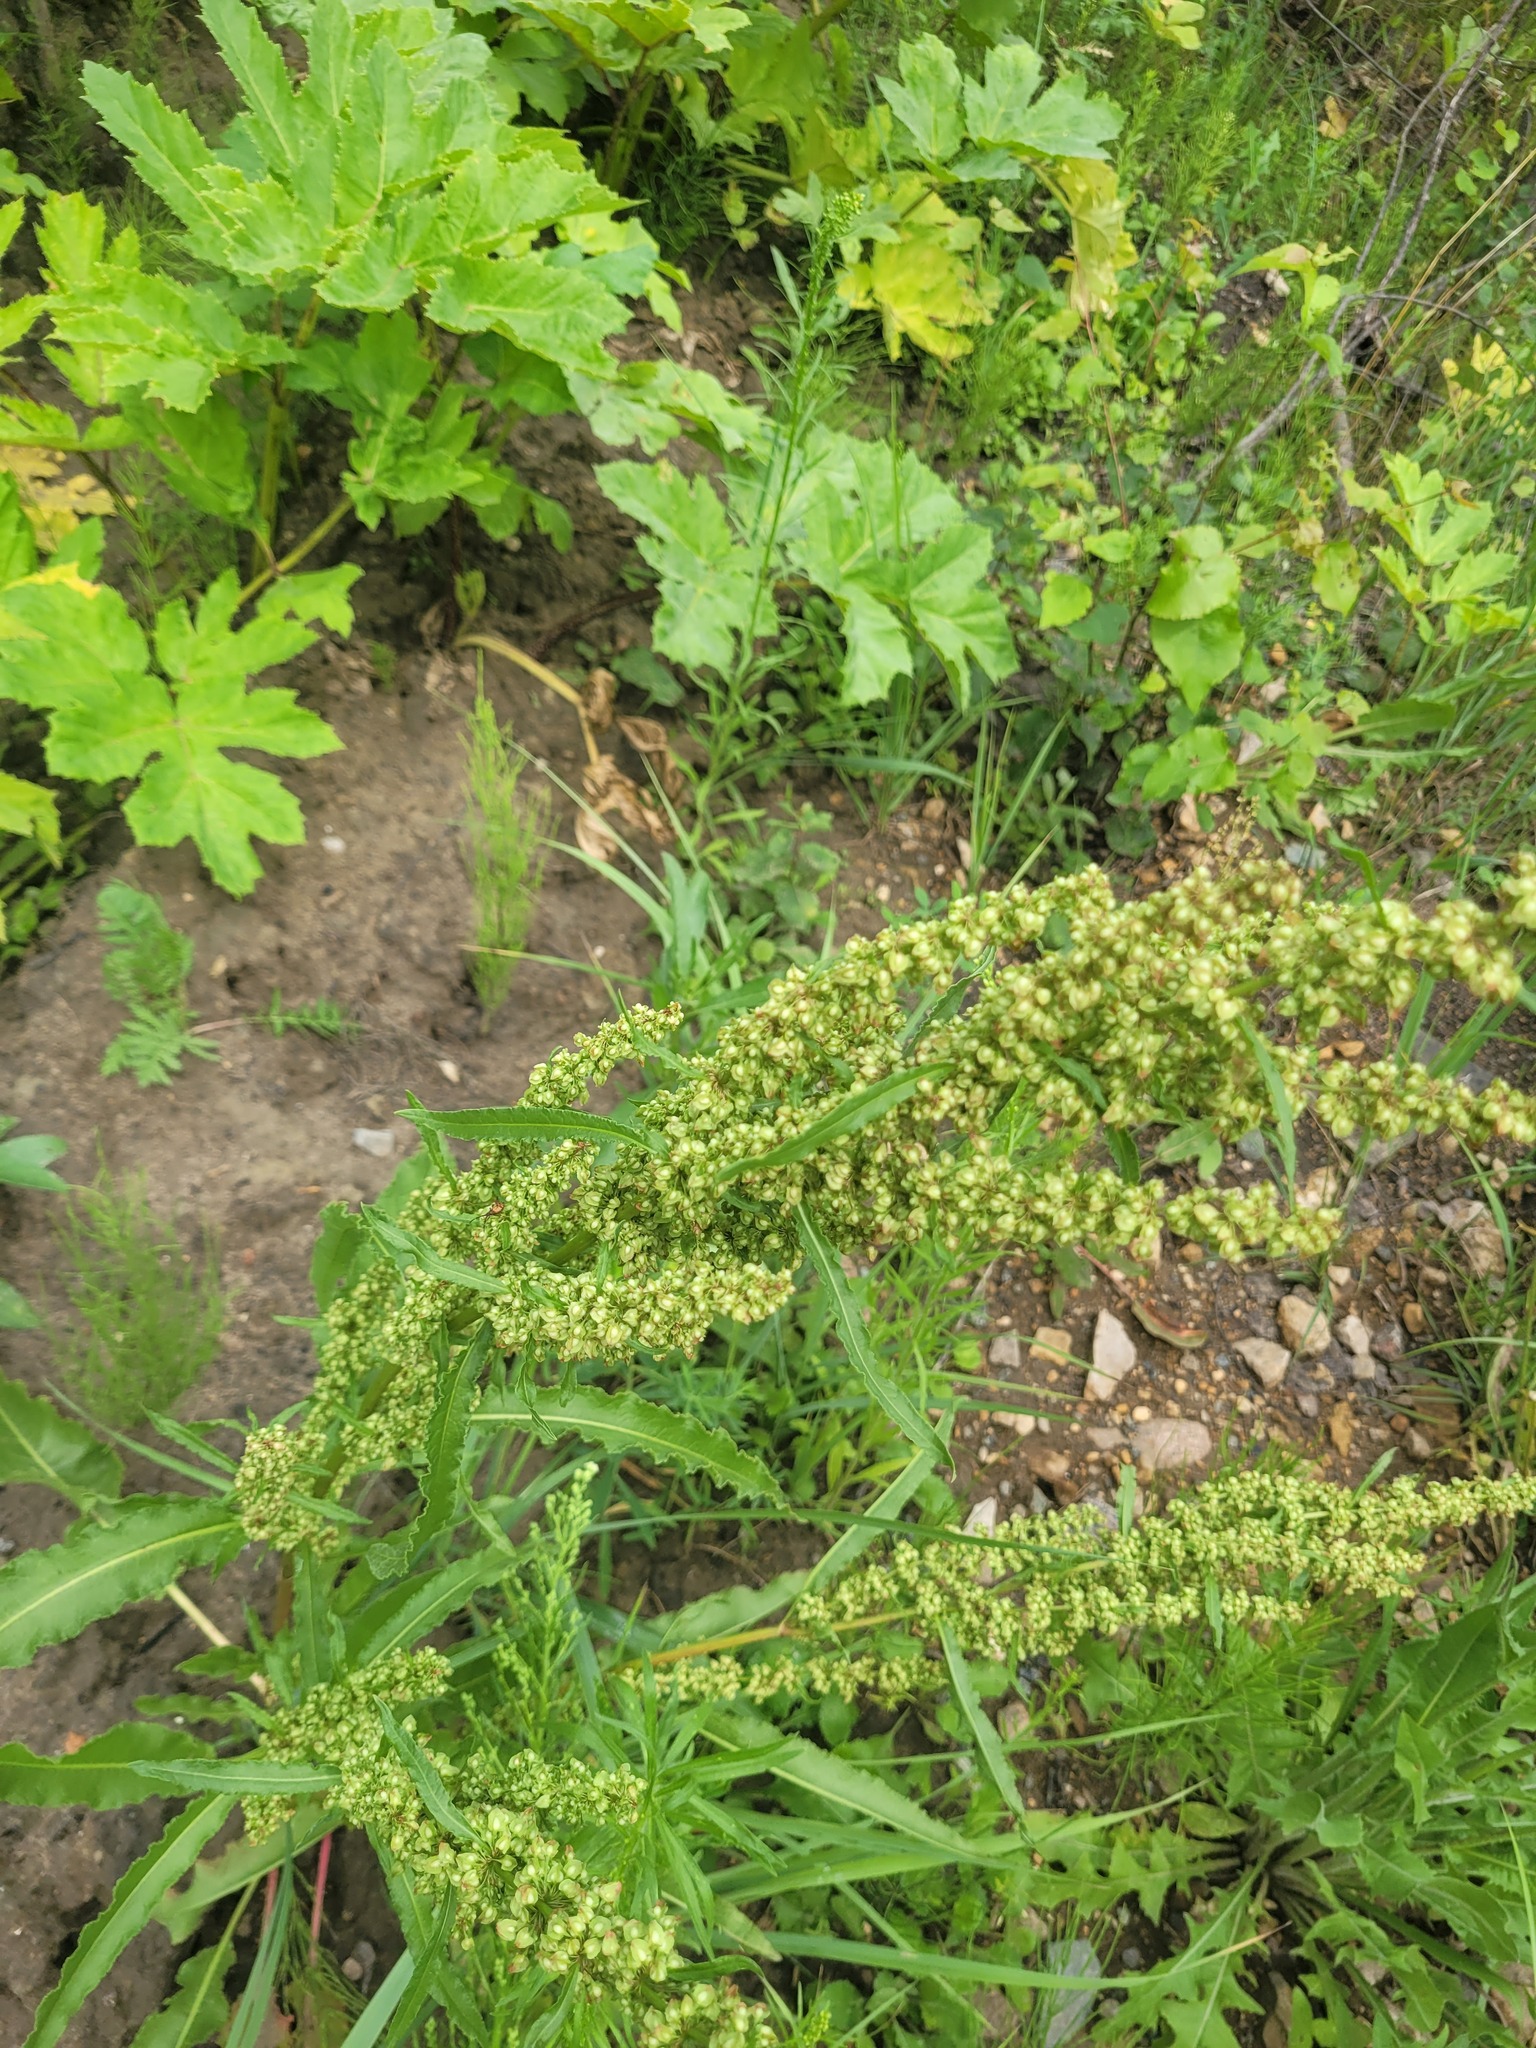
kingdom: Plantae
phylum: Tracheophyta
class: Magnoliopsida
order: Caryophyllales
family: Polygonaceae
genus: Rumex
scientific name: Rumex crispus
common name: Curled dock
